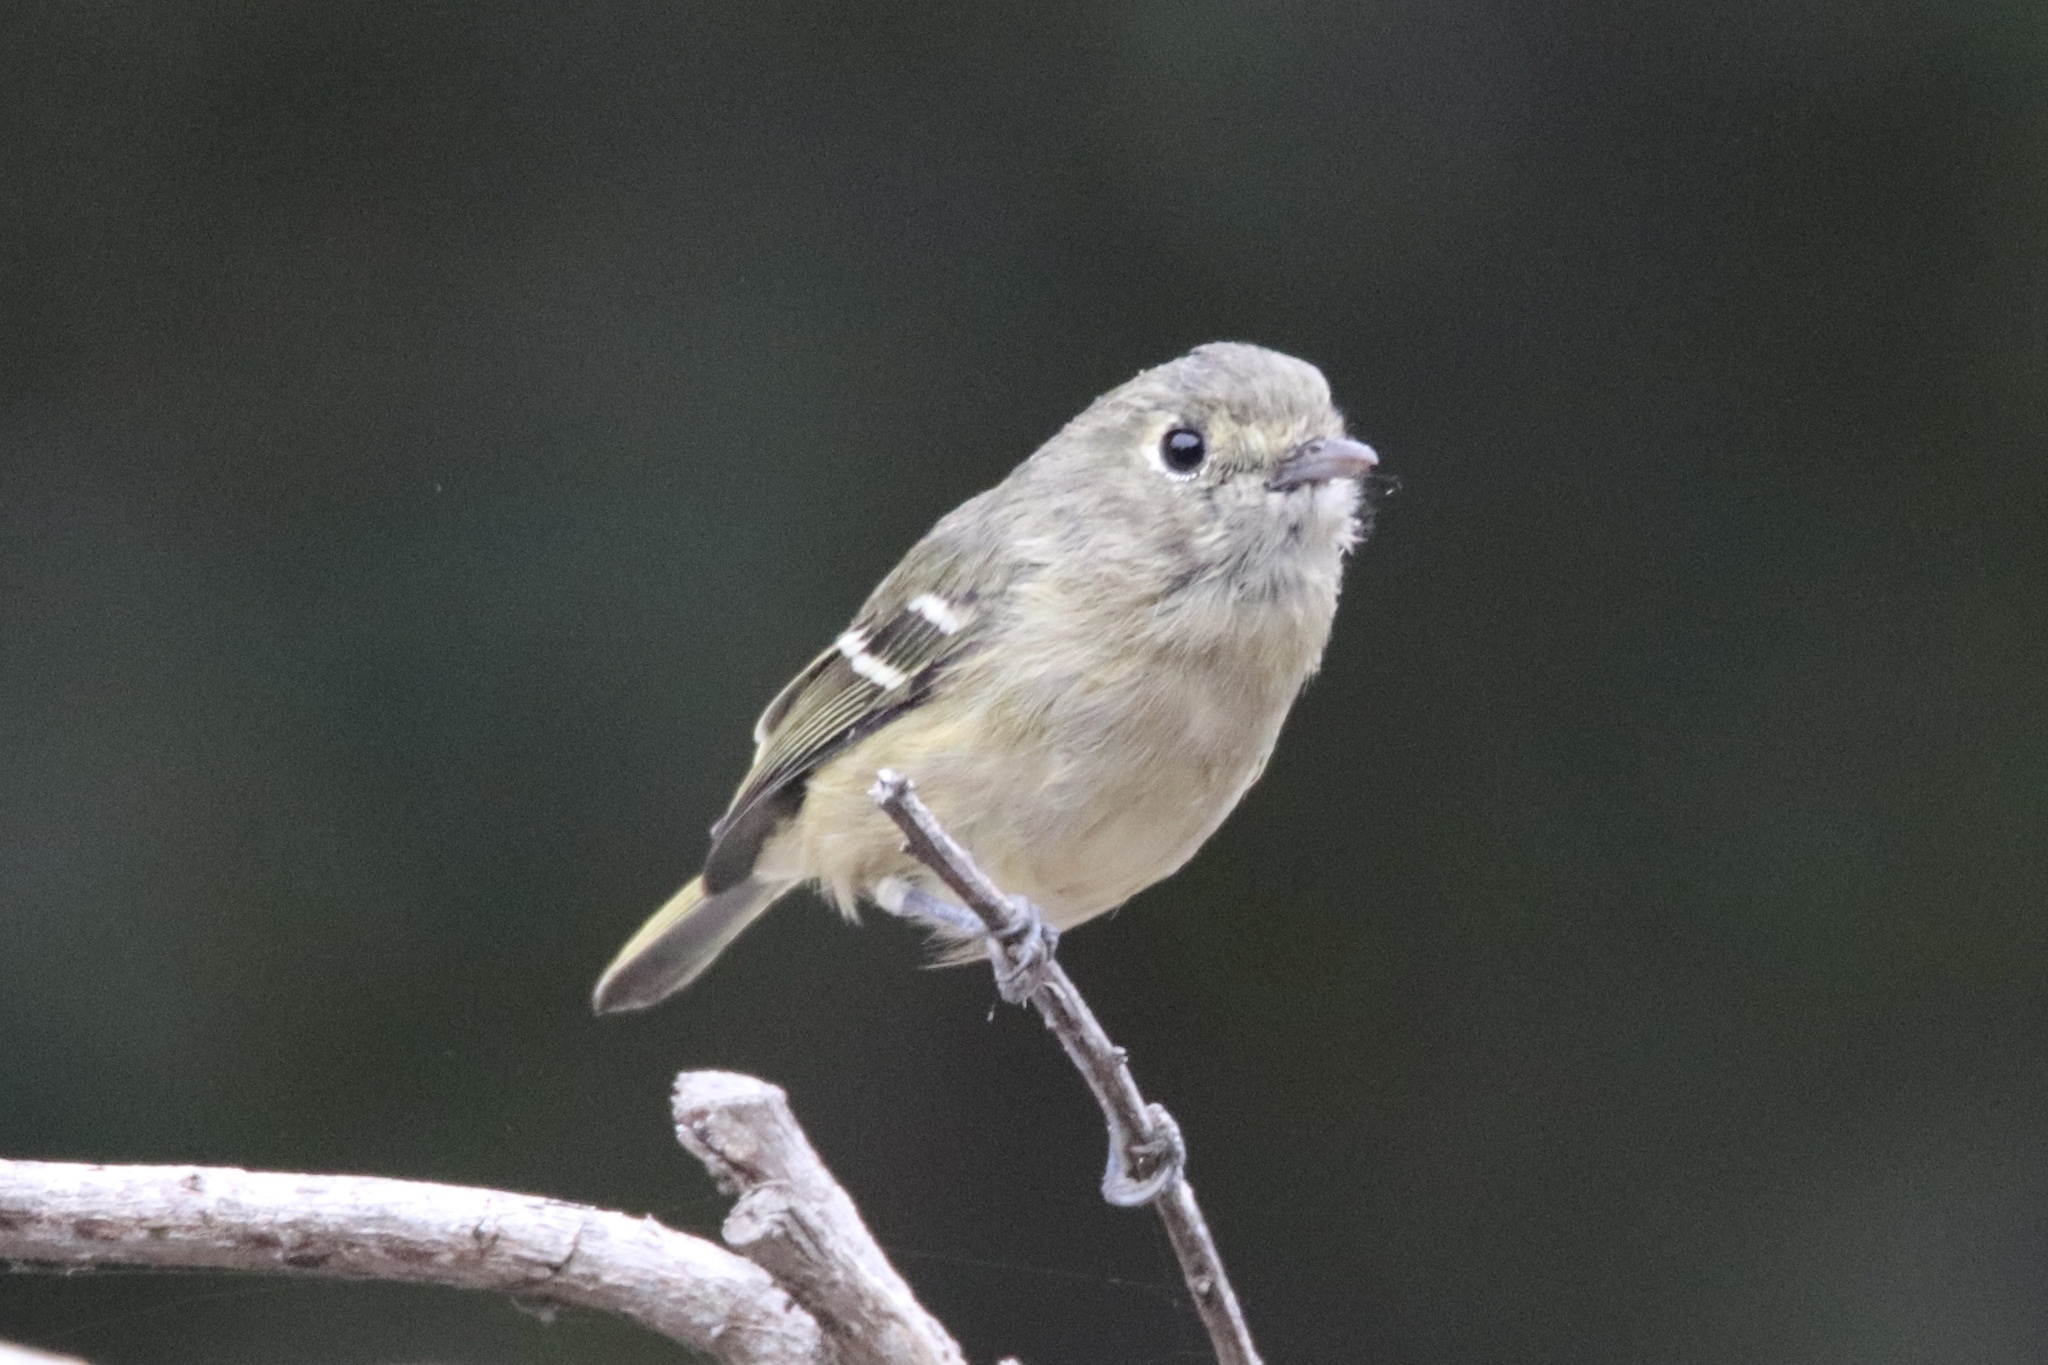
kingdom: Animalia
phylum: Chordata
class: Aves
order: Passeriformes
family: Vireonidae
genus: Vireo
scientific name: Vireo huttoni
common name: Hutton's vireo
